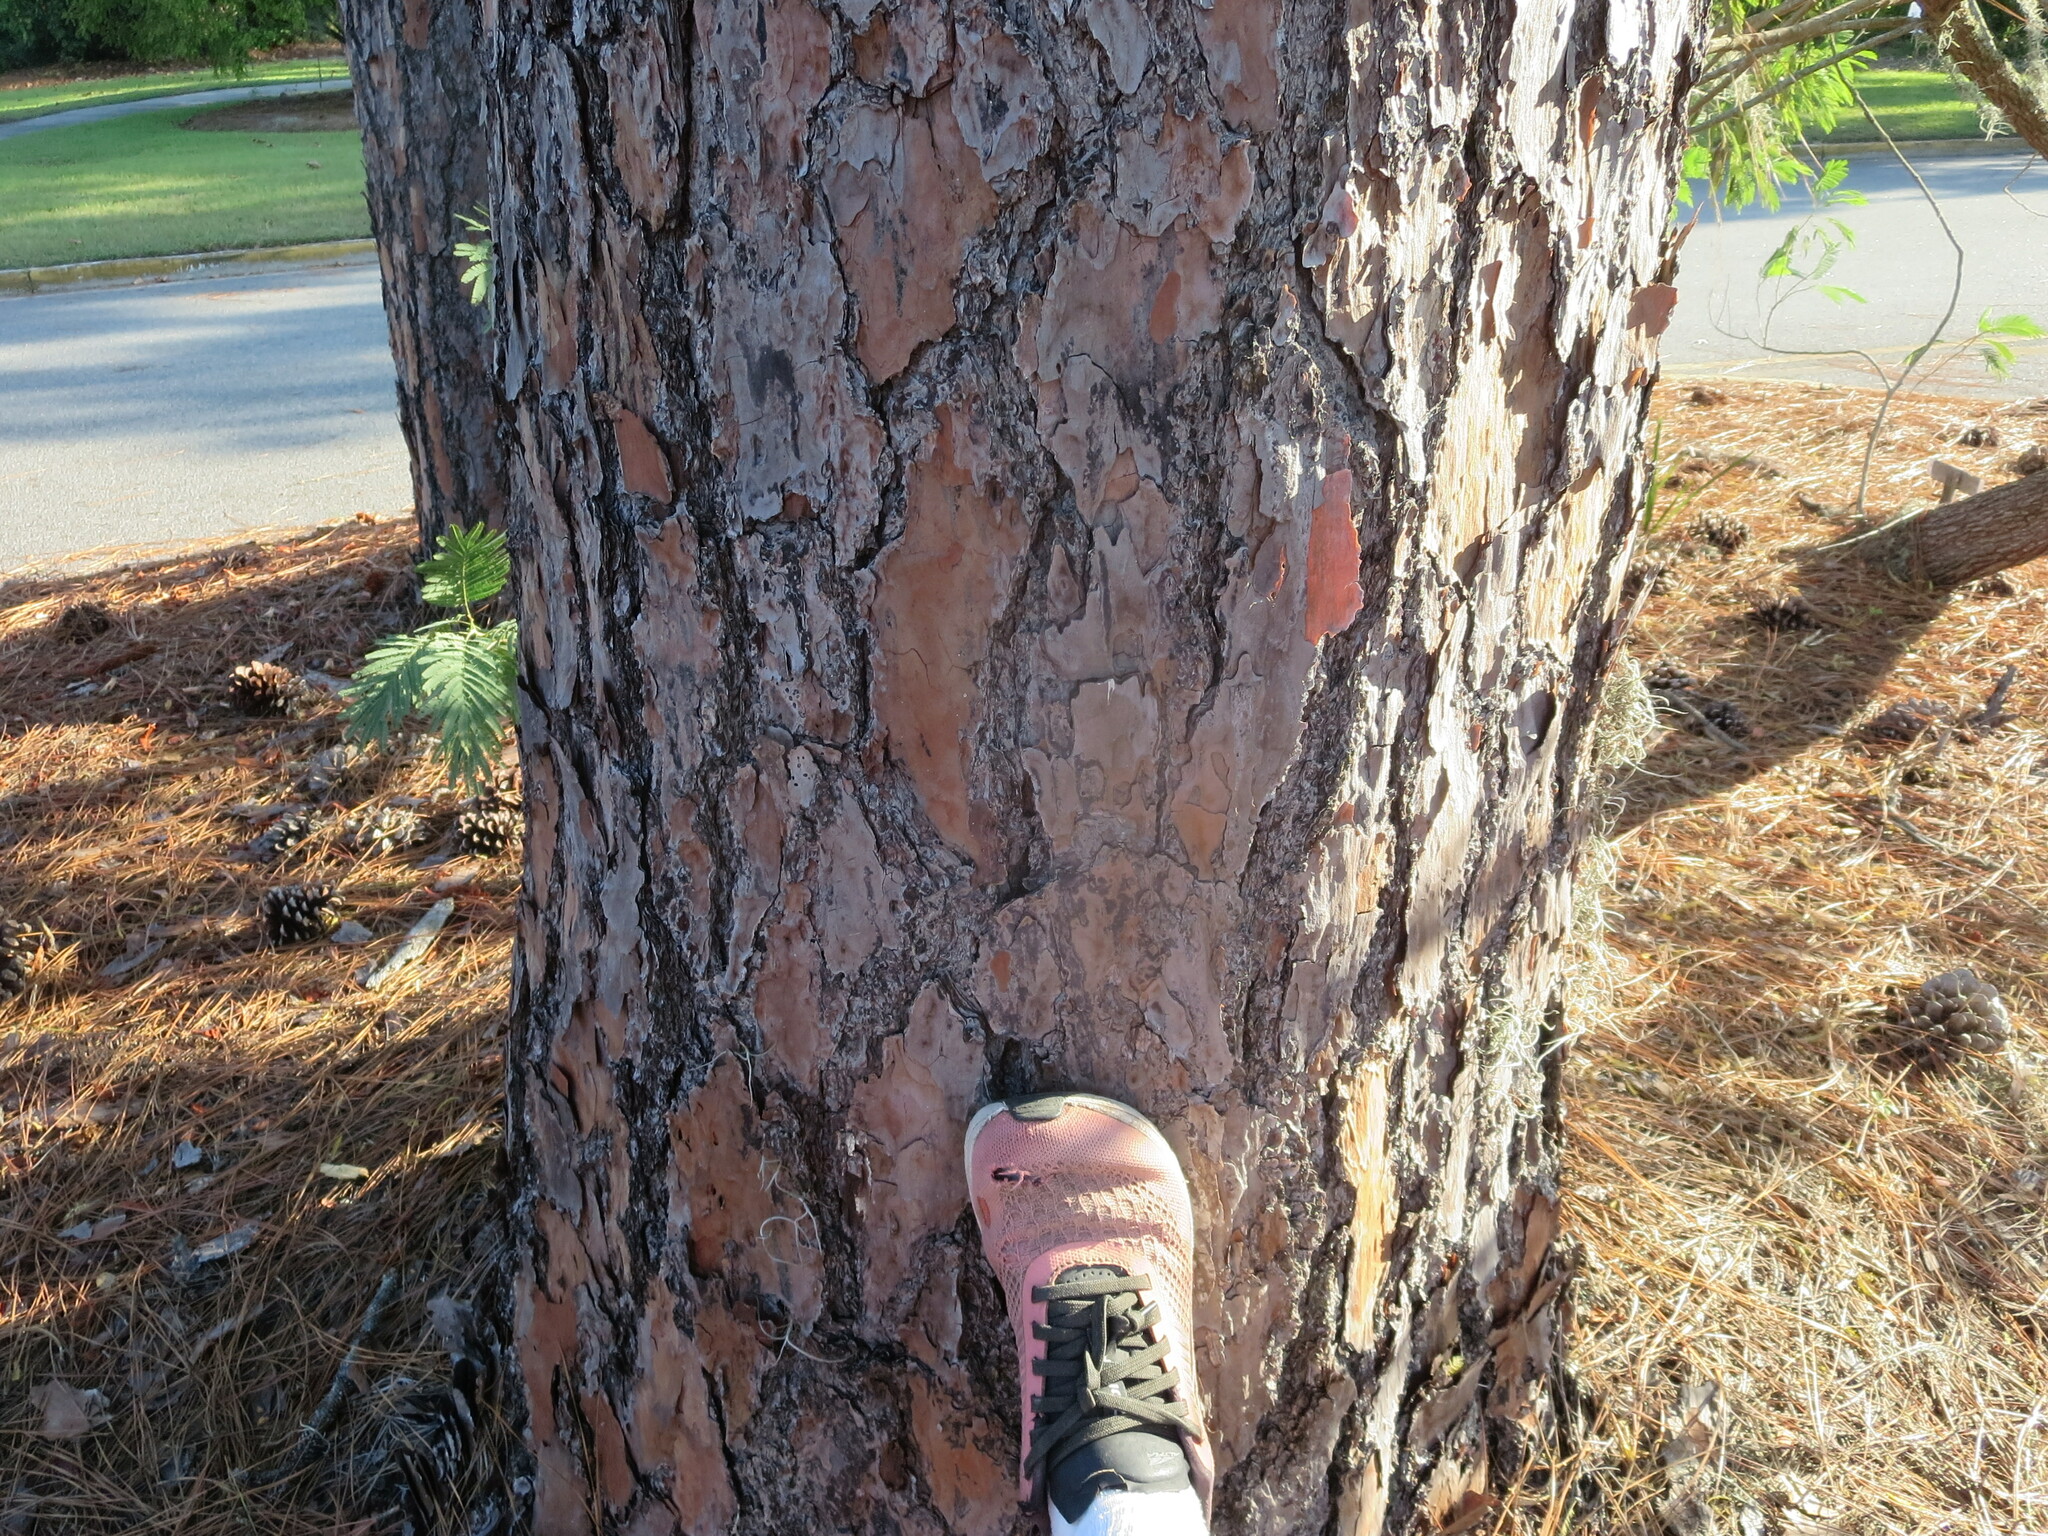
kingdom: Plantae
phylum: Tracheophyta
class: Pinopsida
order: Pinales
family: Pinaceae
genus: Pinus
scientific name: Pinus palustris
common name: Longleaf pine
